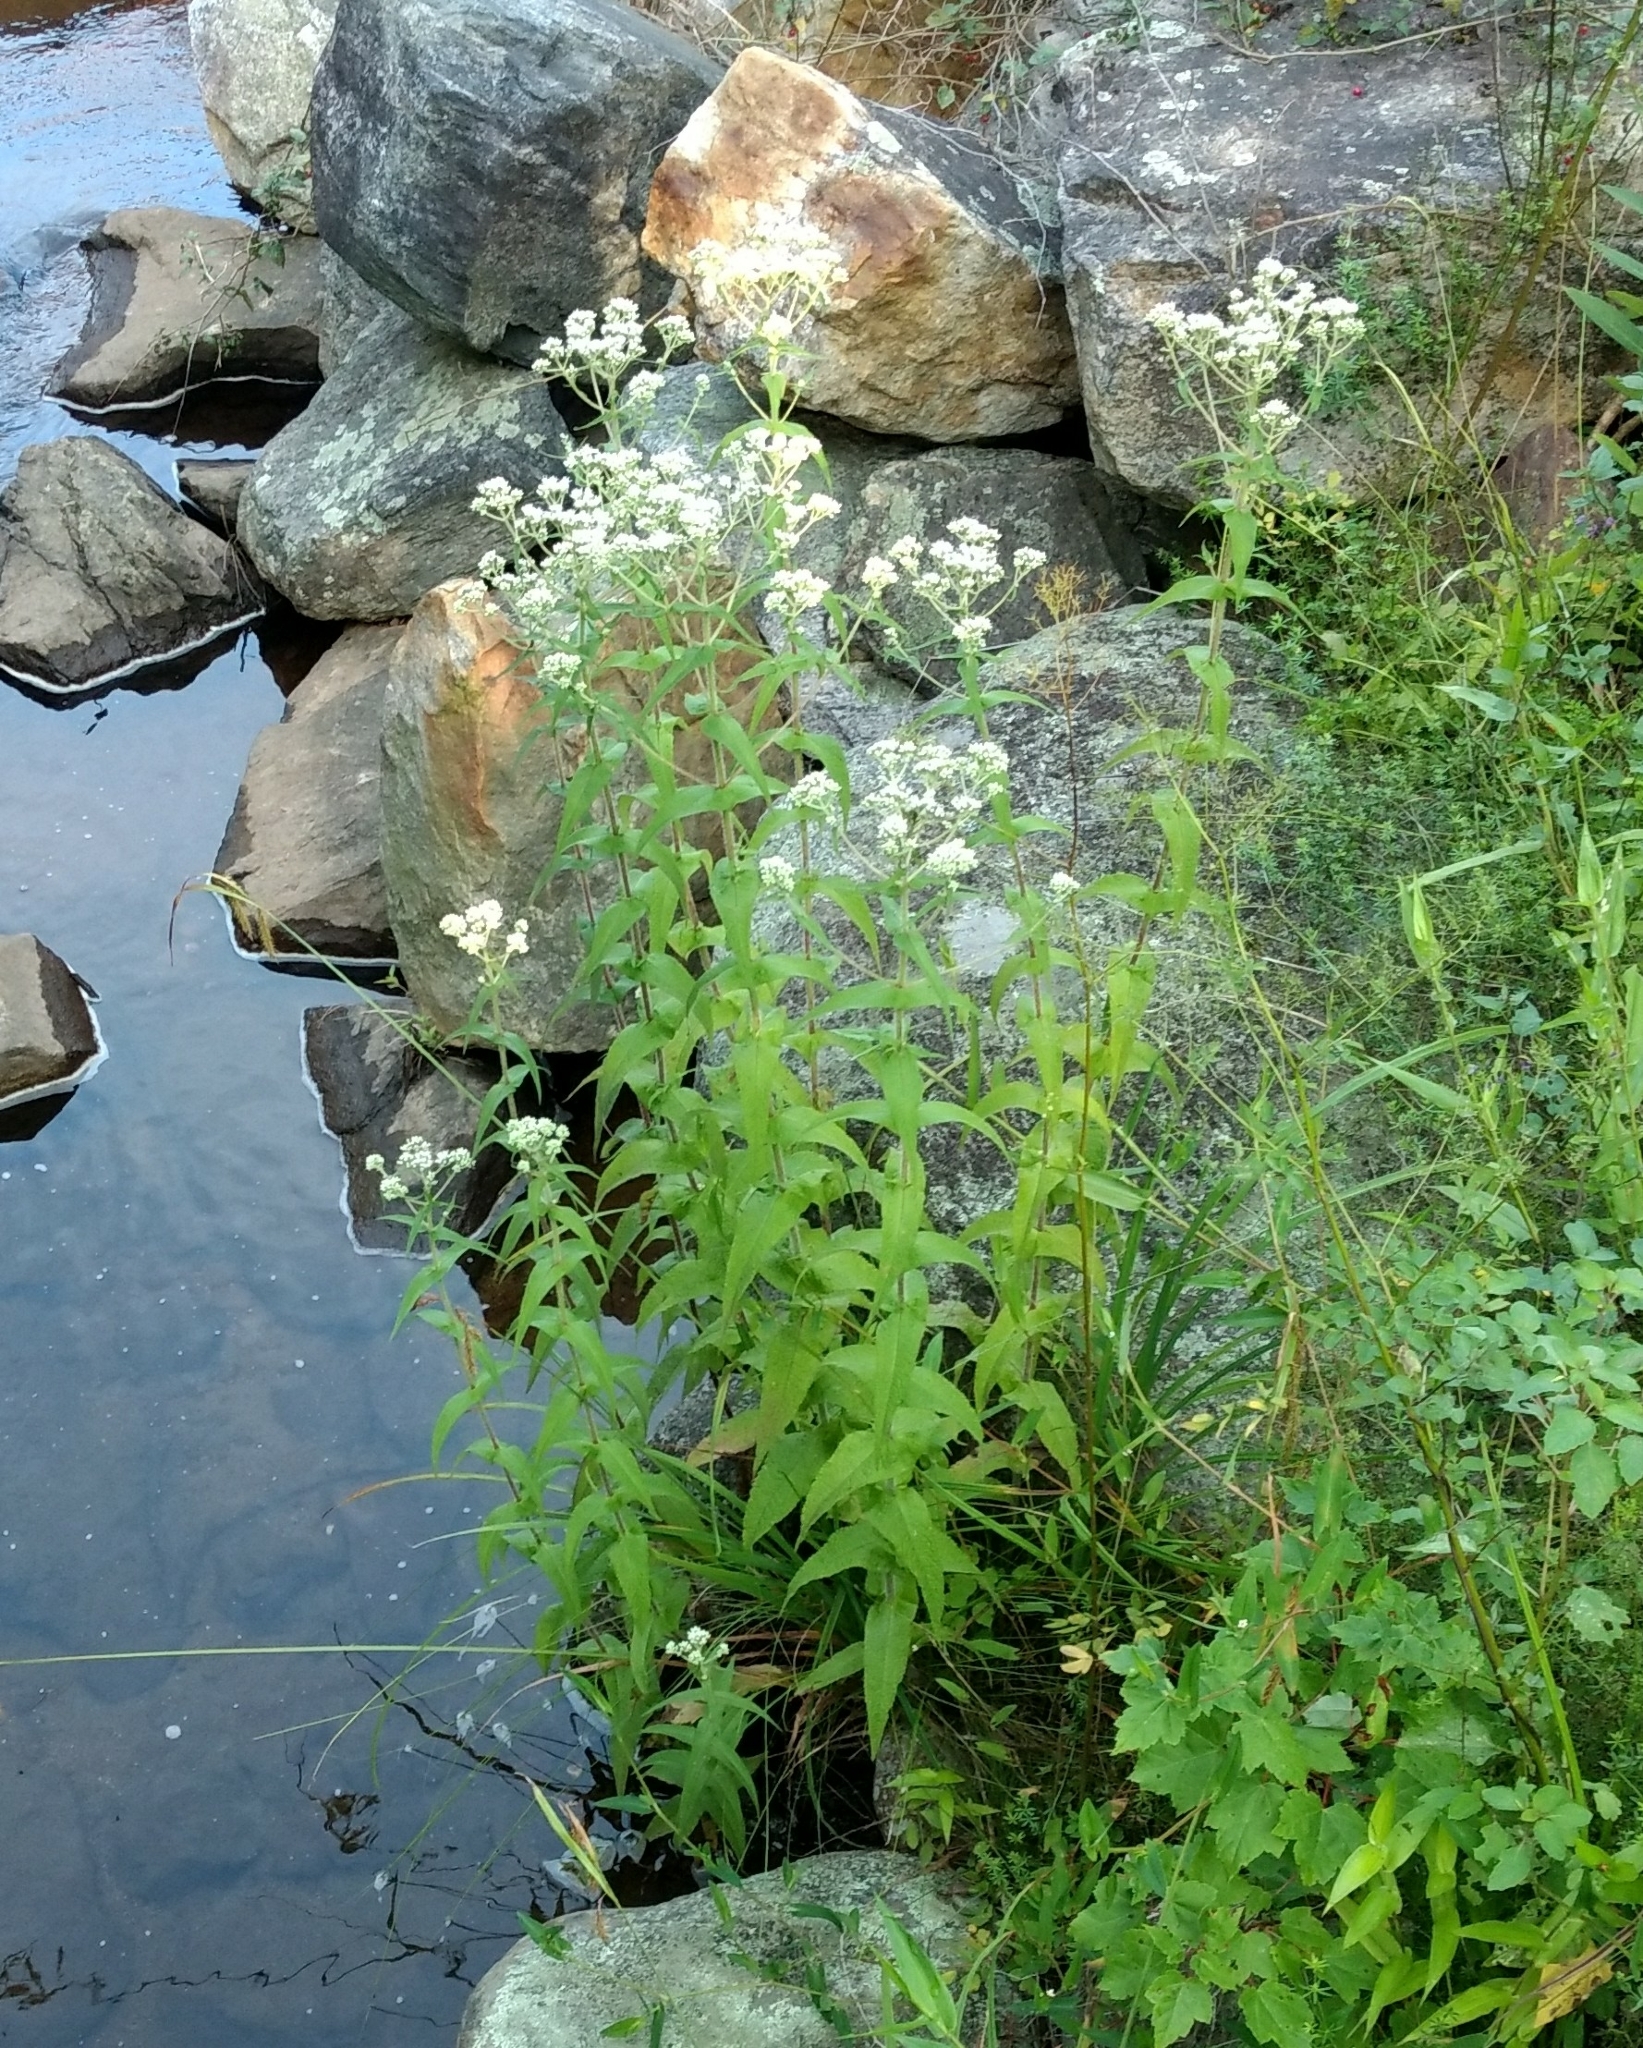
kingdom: Plantae
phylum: Tracheophyta
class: Magnoliopsida
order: Asterales
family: Asteraceae
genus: Eupatorium
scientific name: Eupatorium perfoliatum
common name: Boneset
